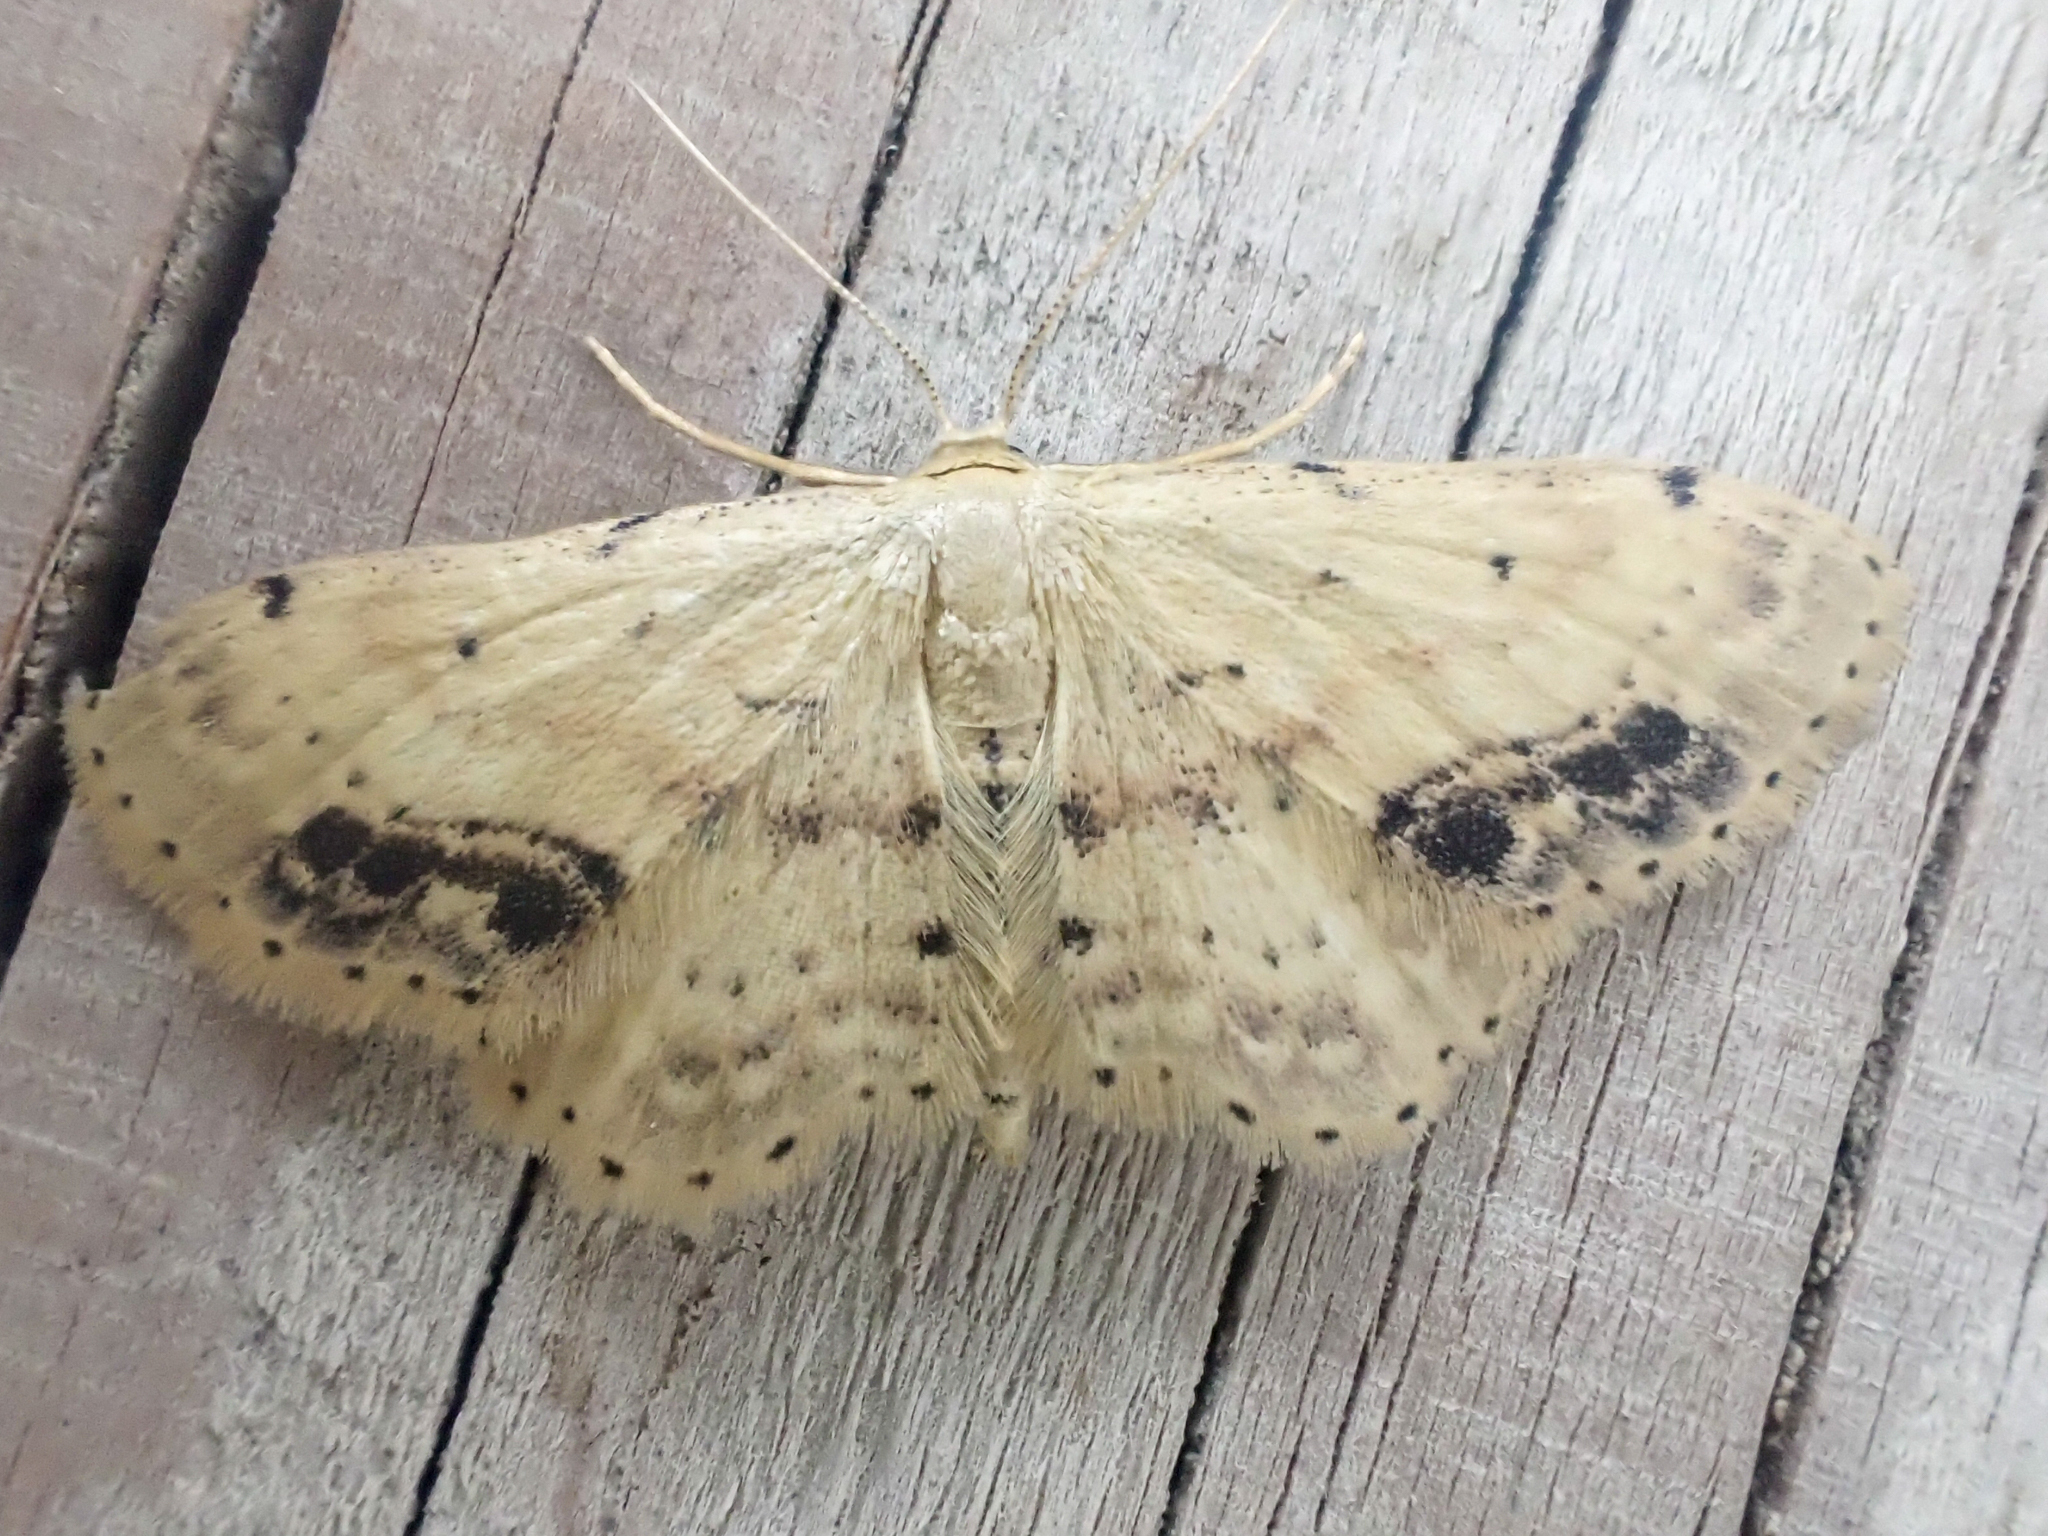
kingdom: Animalia
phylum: Arthropoda
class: Insecta
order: Lepidoptera
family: Geometridae
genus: Idaea
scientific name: Idaea dimidiata
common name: Single-dotted wave
